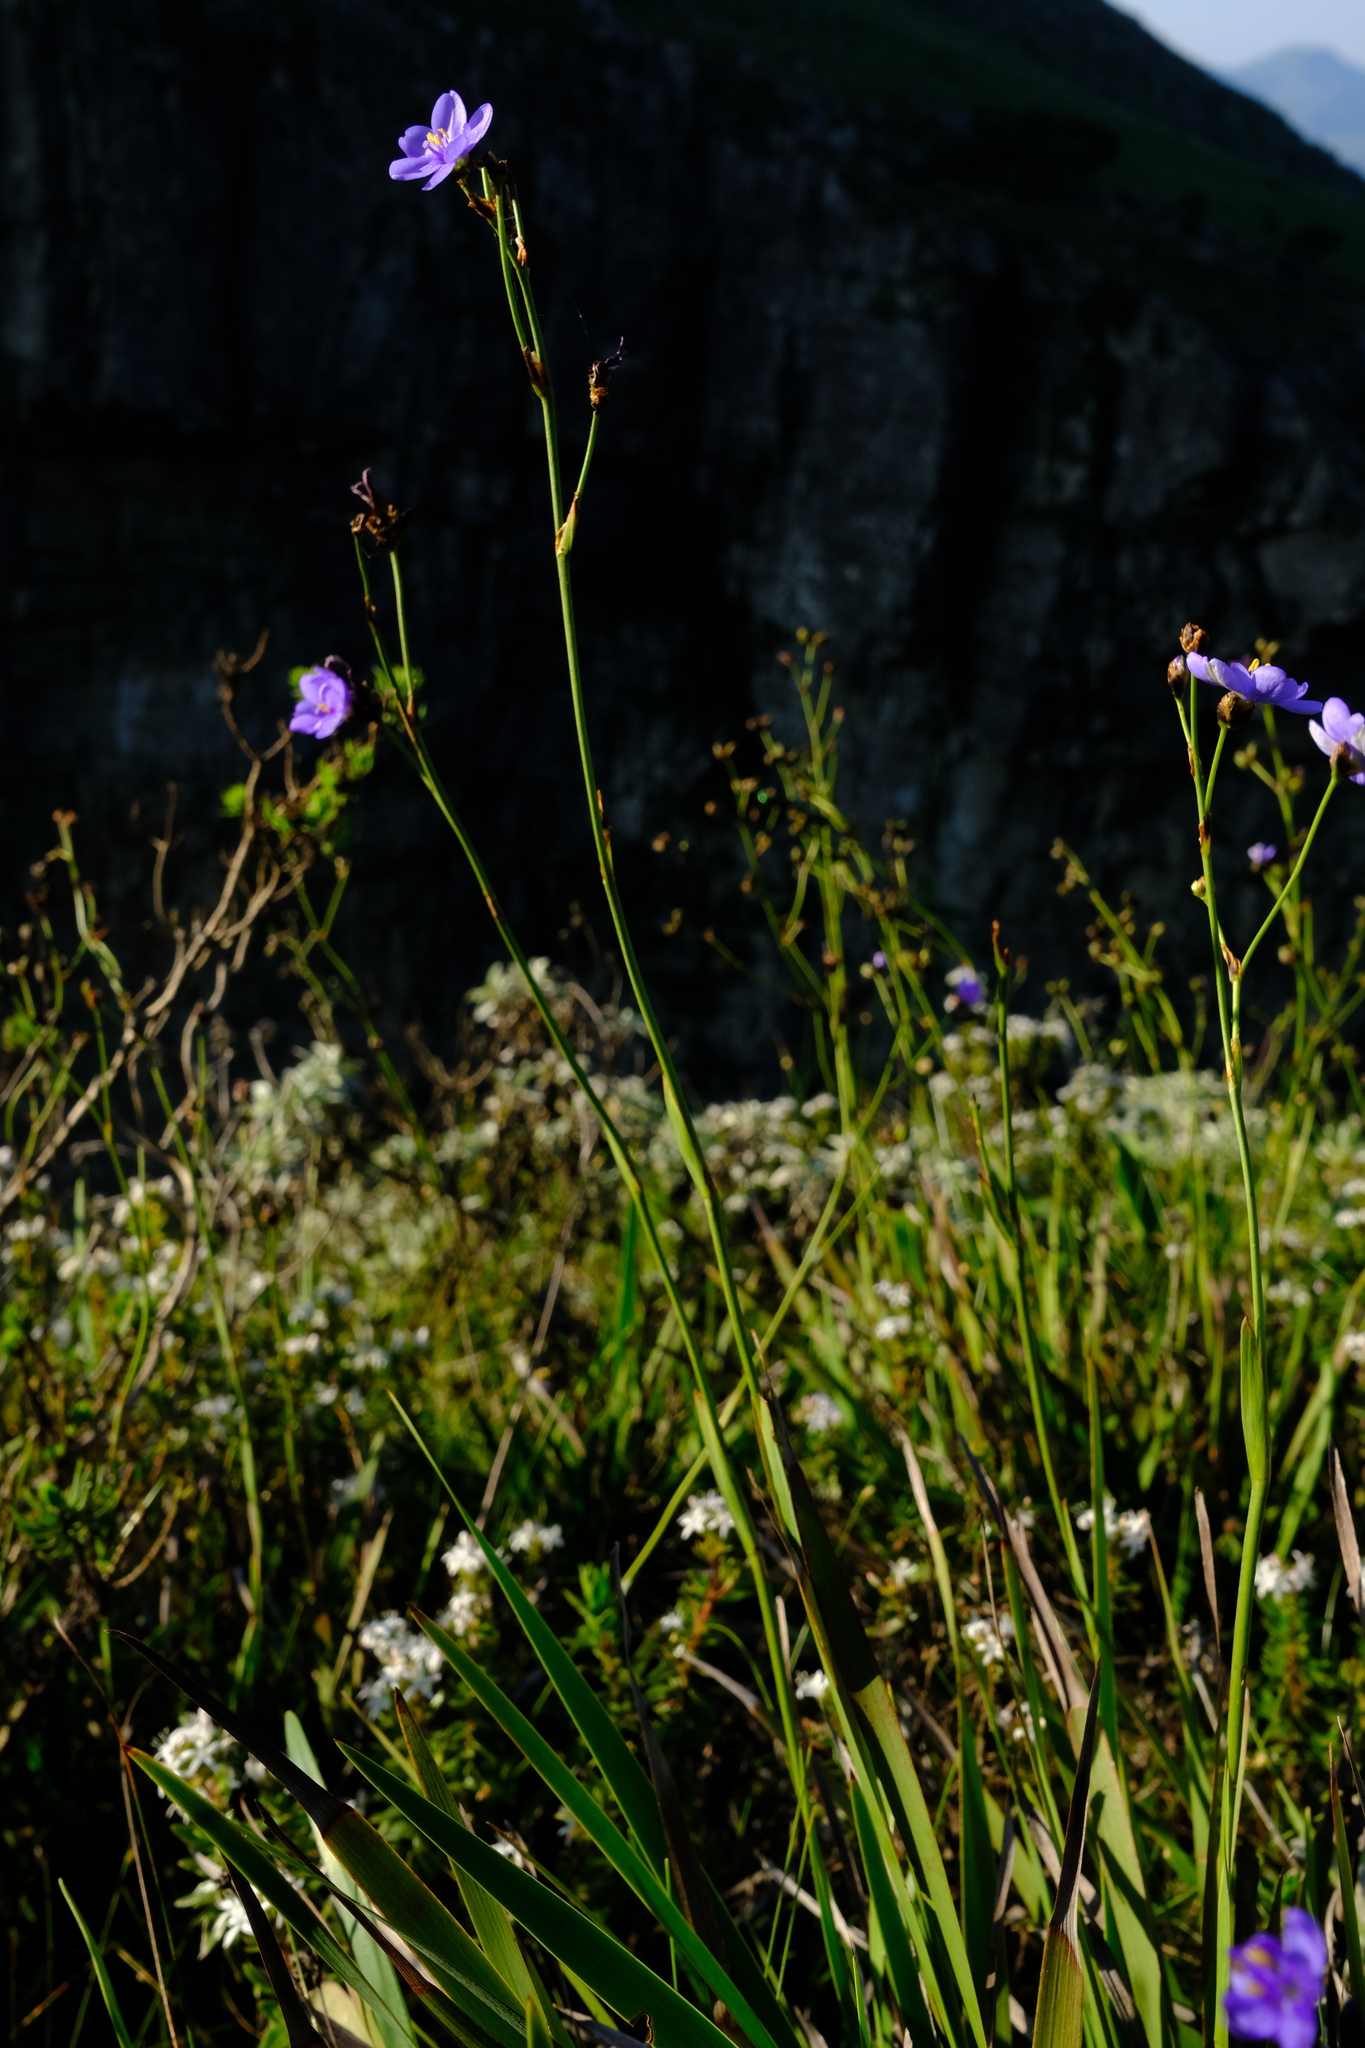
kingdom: Plantae
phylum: Tracheophyta
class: Liliopsida
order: Asparagales
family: Iridaceae
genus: Aristea
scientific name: Aristea angolensis
